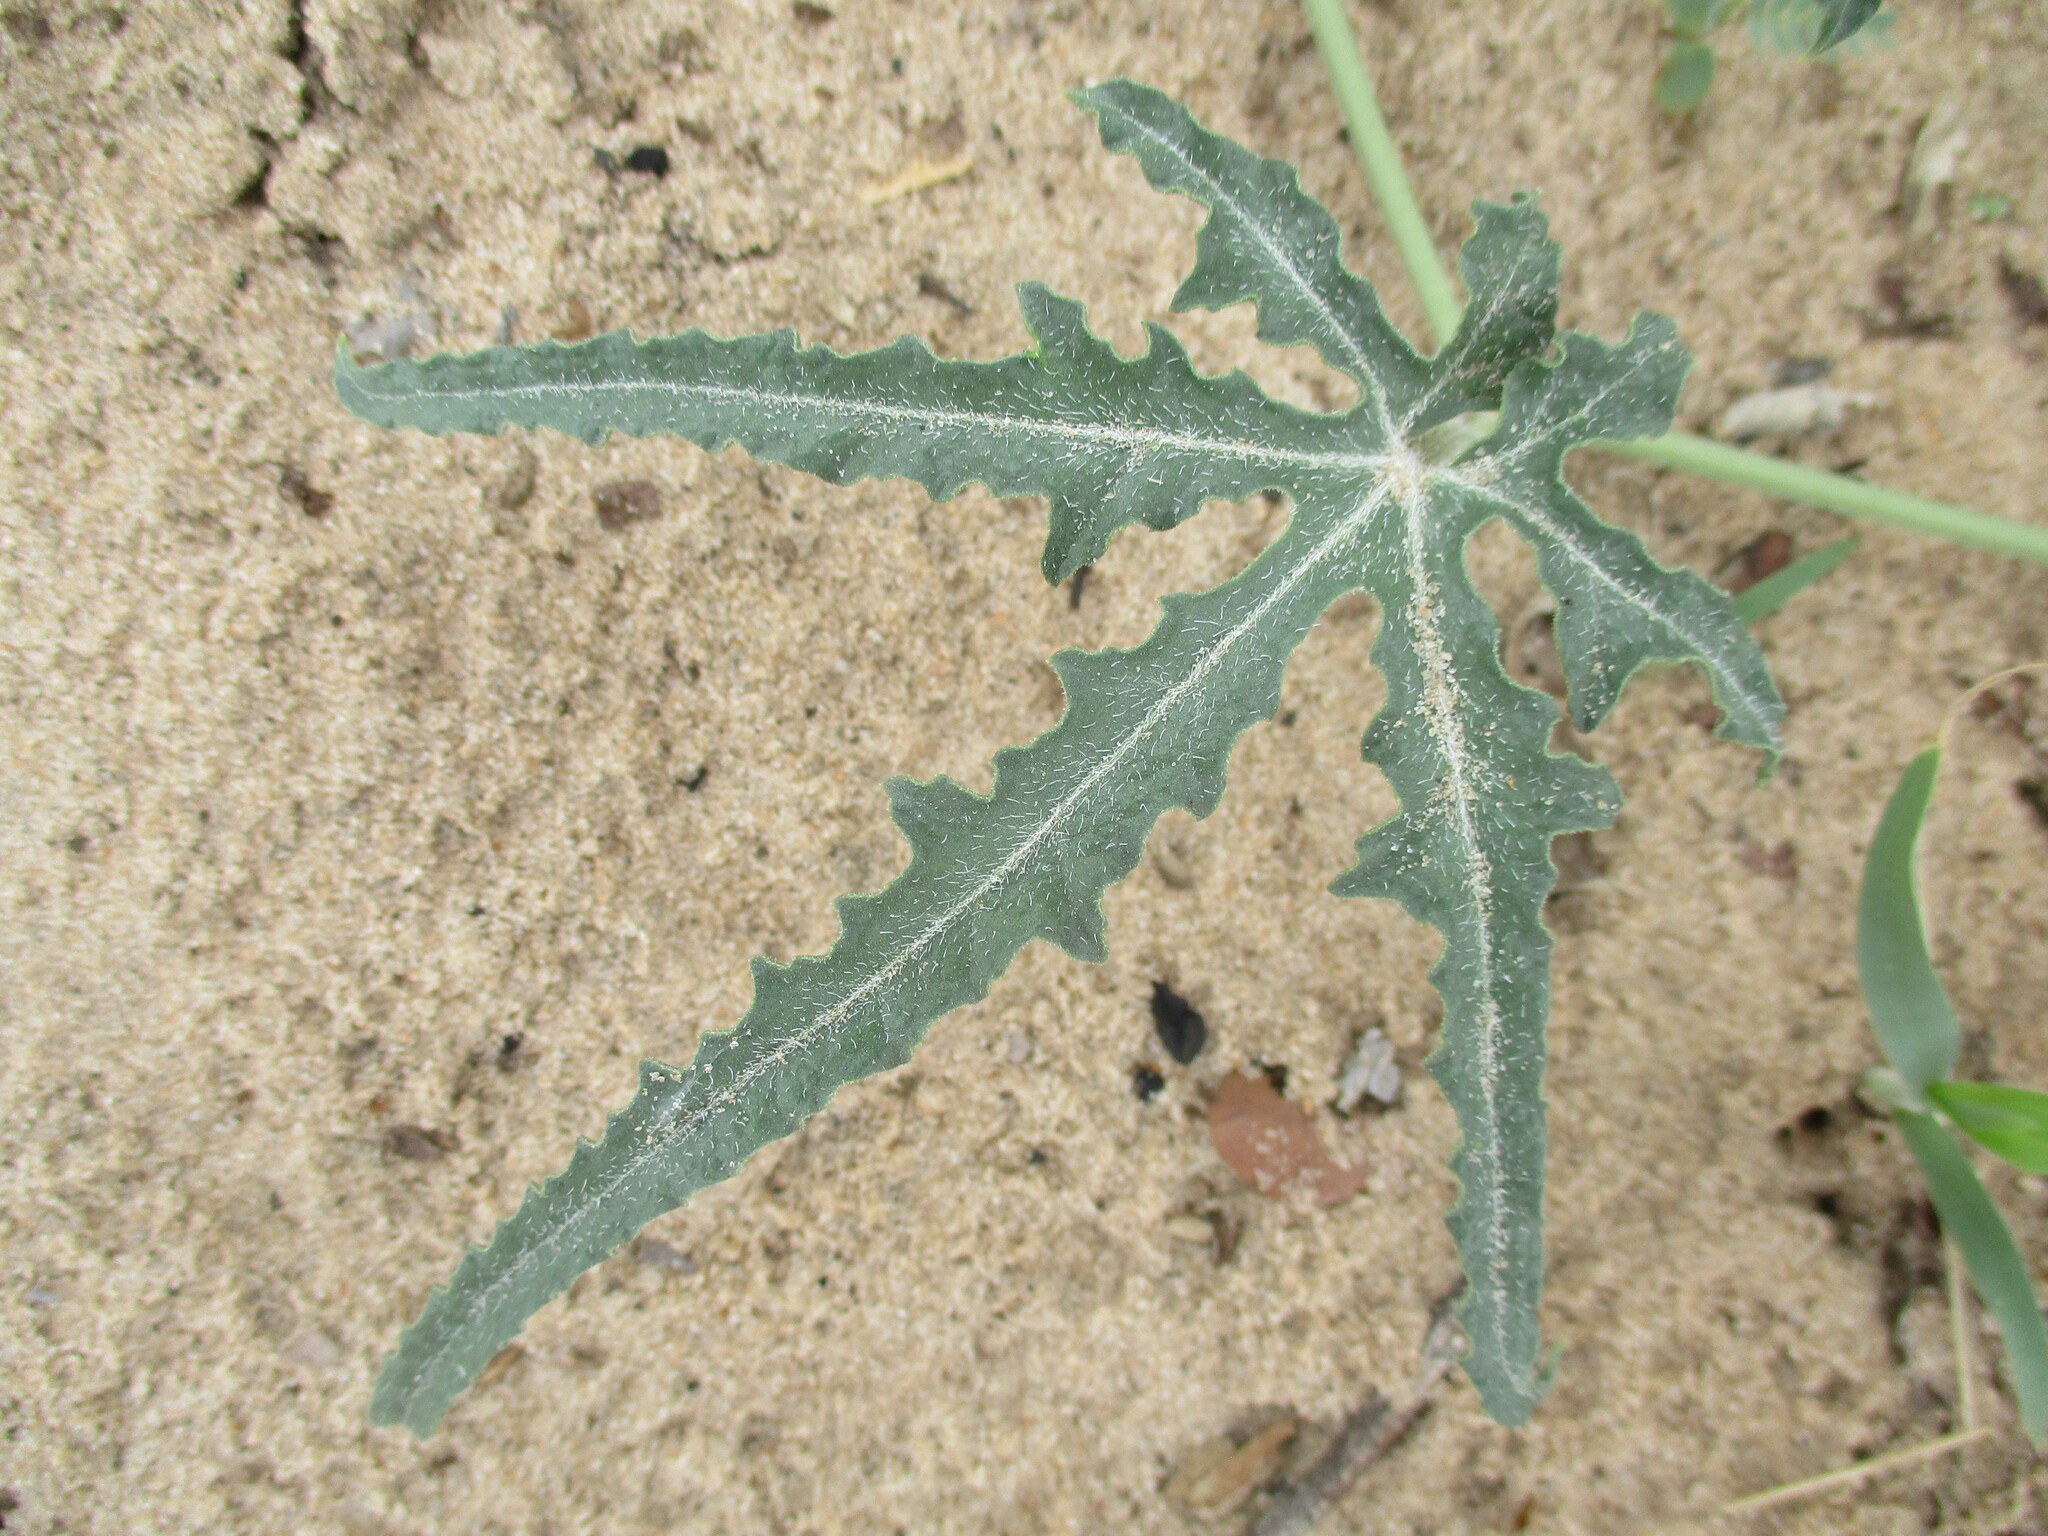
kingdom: Plantae
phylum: Tracheophyta
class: Magnoliopsida
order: Cucurbitales
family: Cucurbitaceae
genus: Citrullus
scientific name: Citrullus naudinianus
